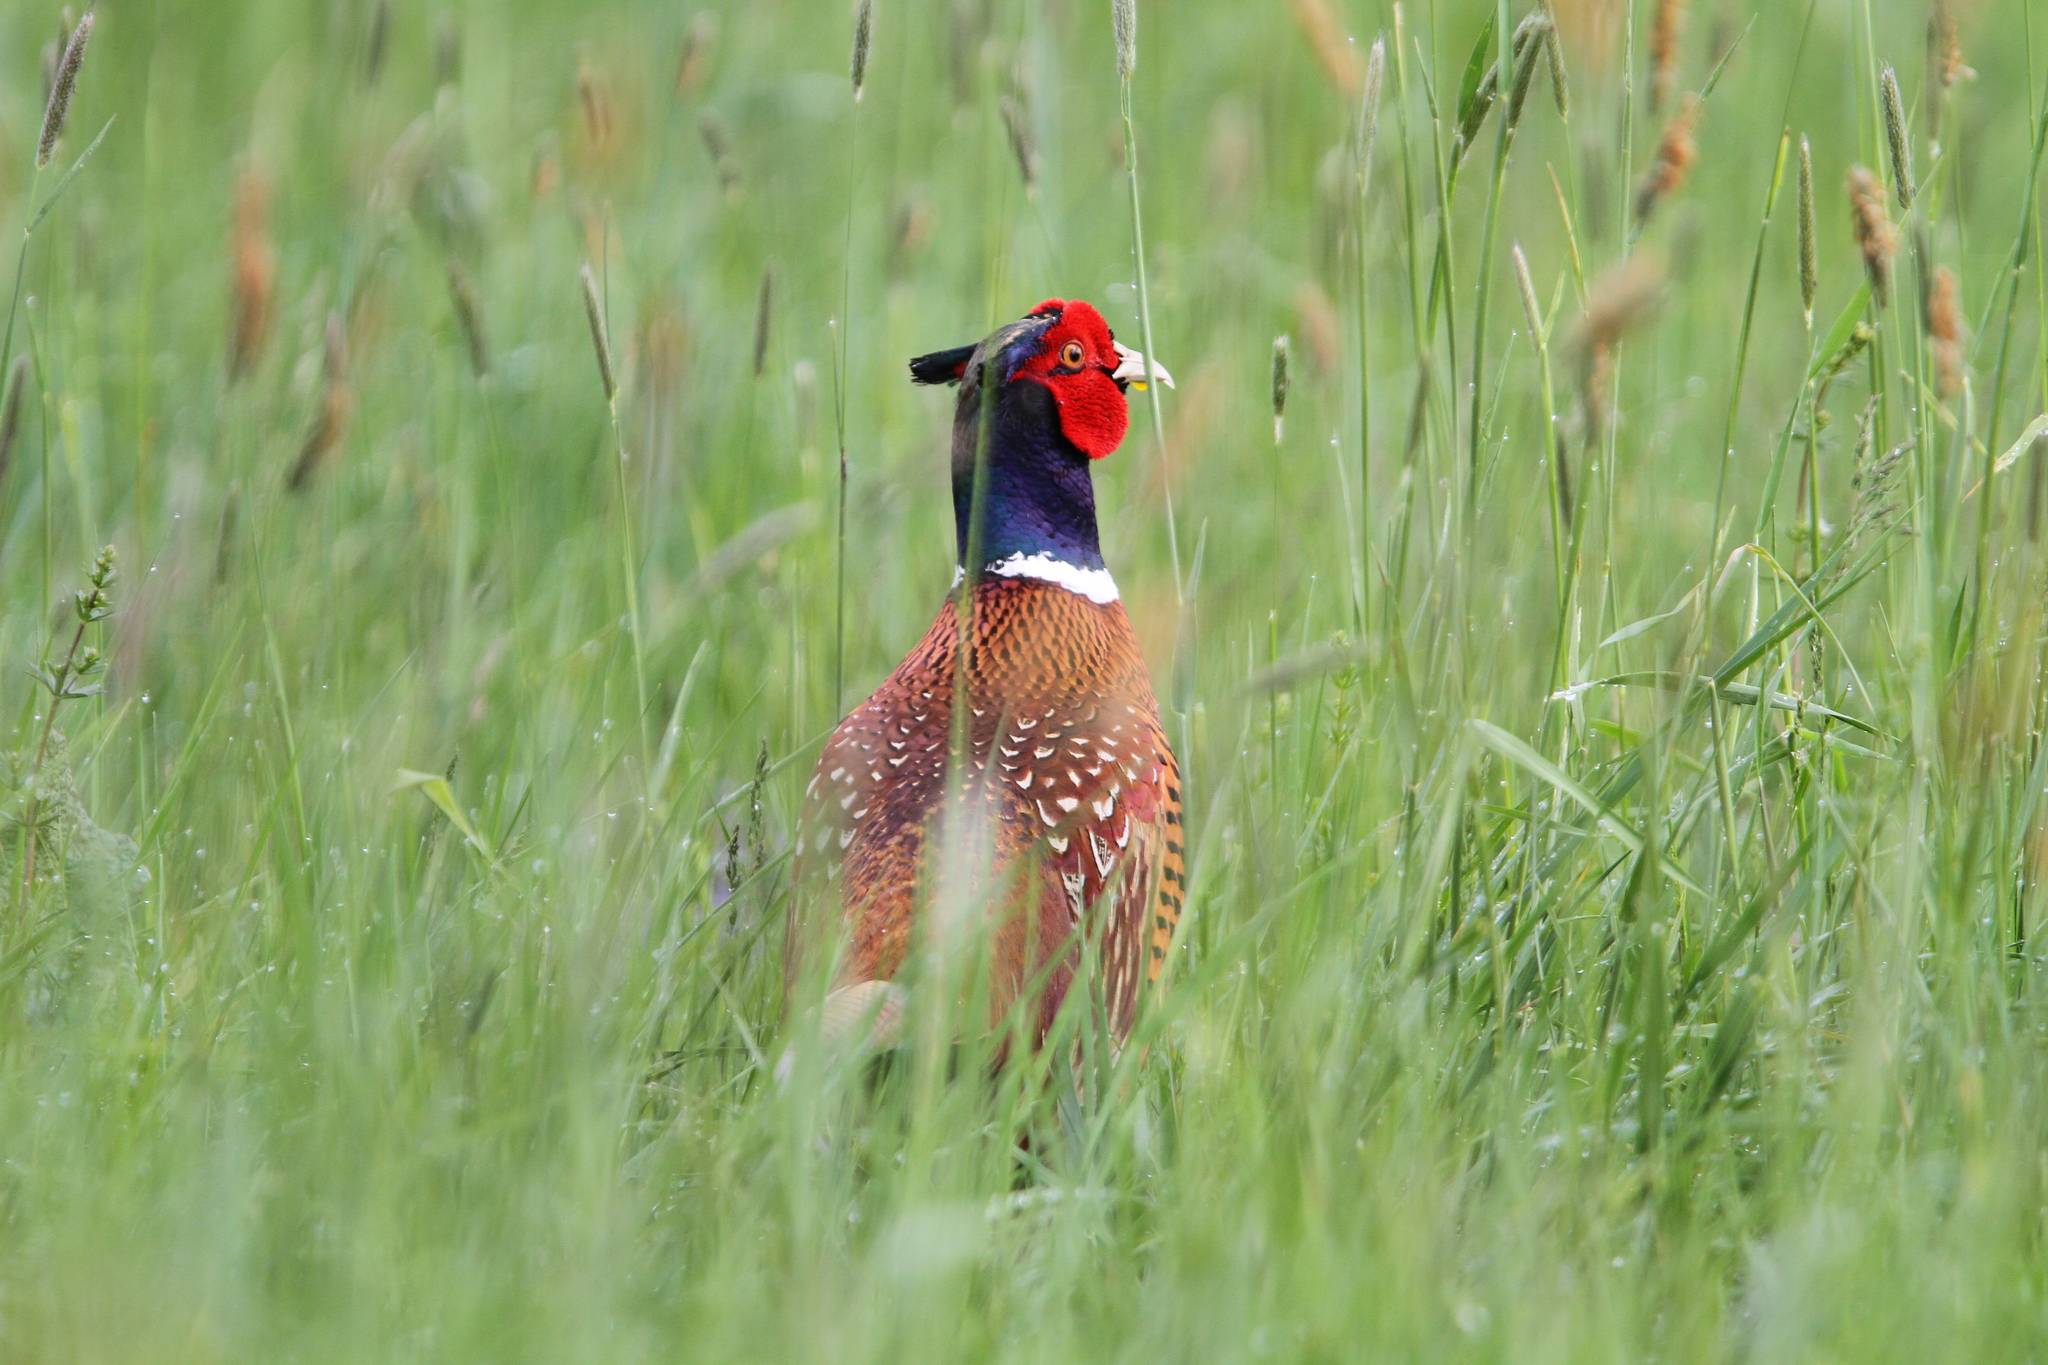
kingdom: Animalia
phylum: Chordata
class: Aves
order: Galliformes
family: Phasianidae
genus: Phasianus
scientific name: Phasianus colchicus
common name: Common pheasant
